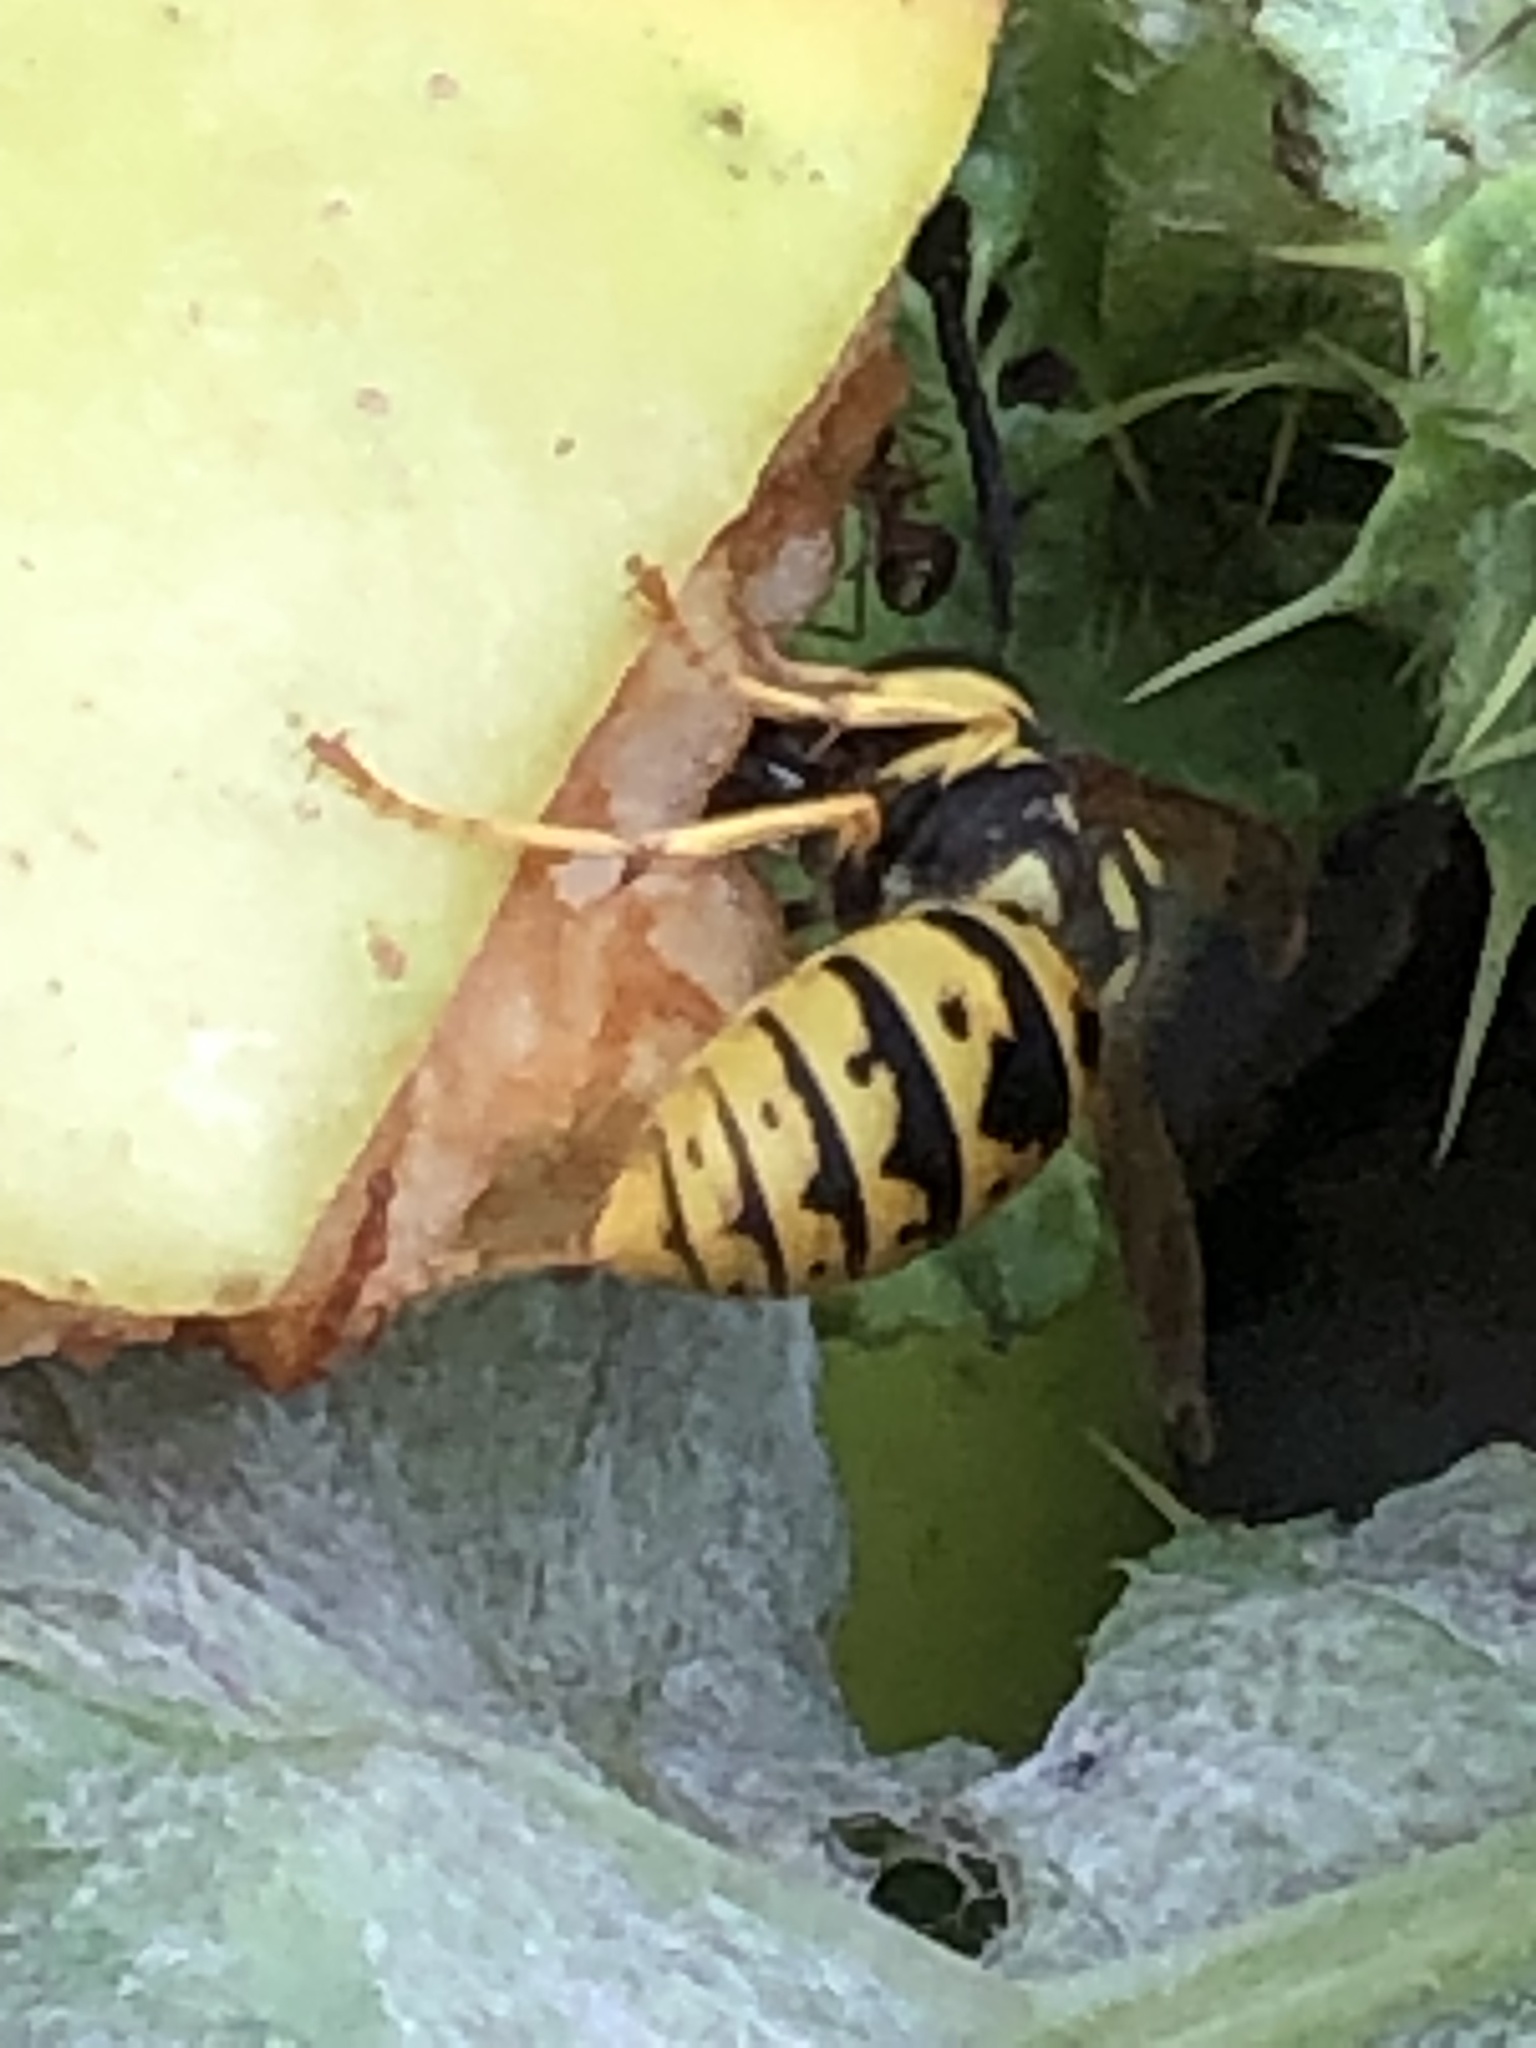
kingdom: Animalia
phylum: Arthropoda
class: Insecta
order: Hymenoptera
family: Vespidae
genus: Vespula
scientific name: Vespula germanica
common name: German wasp
